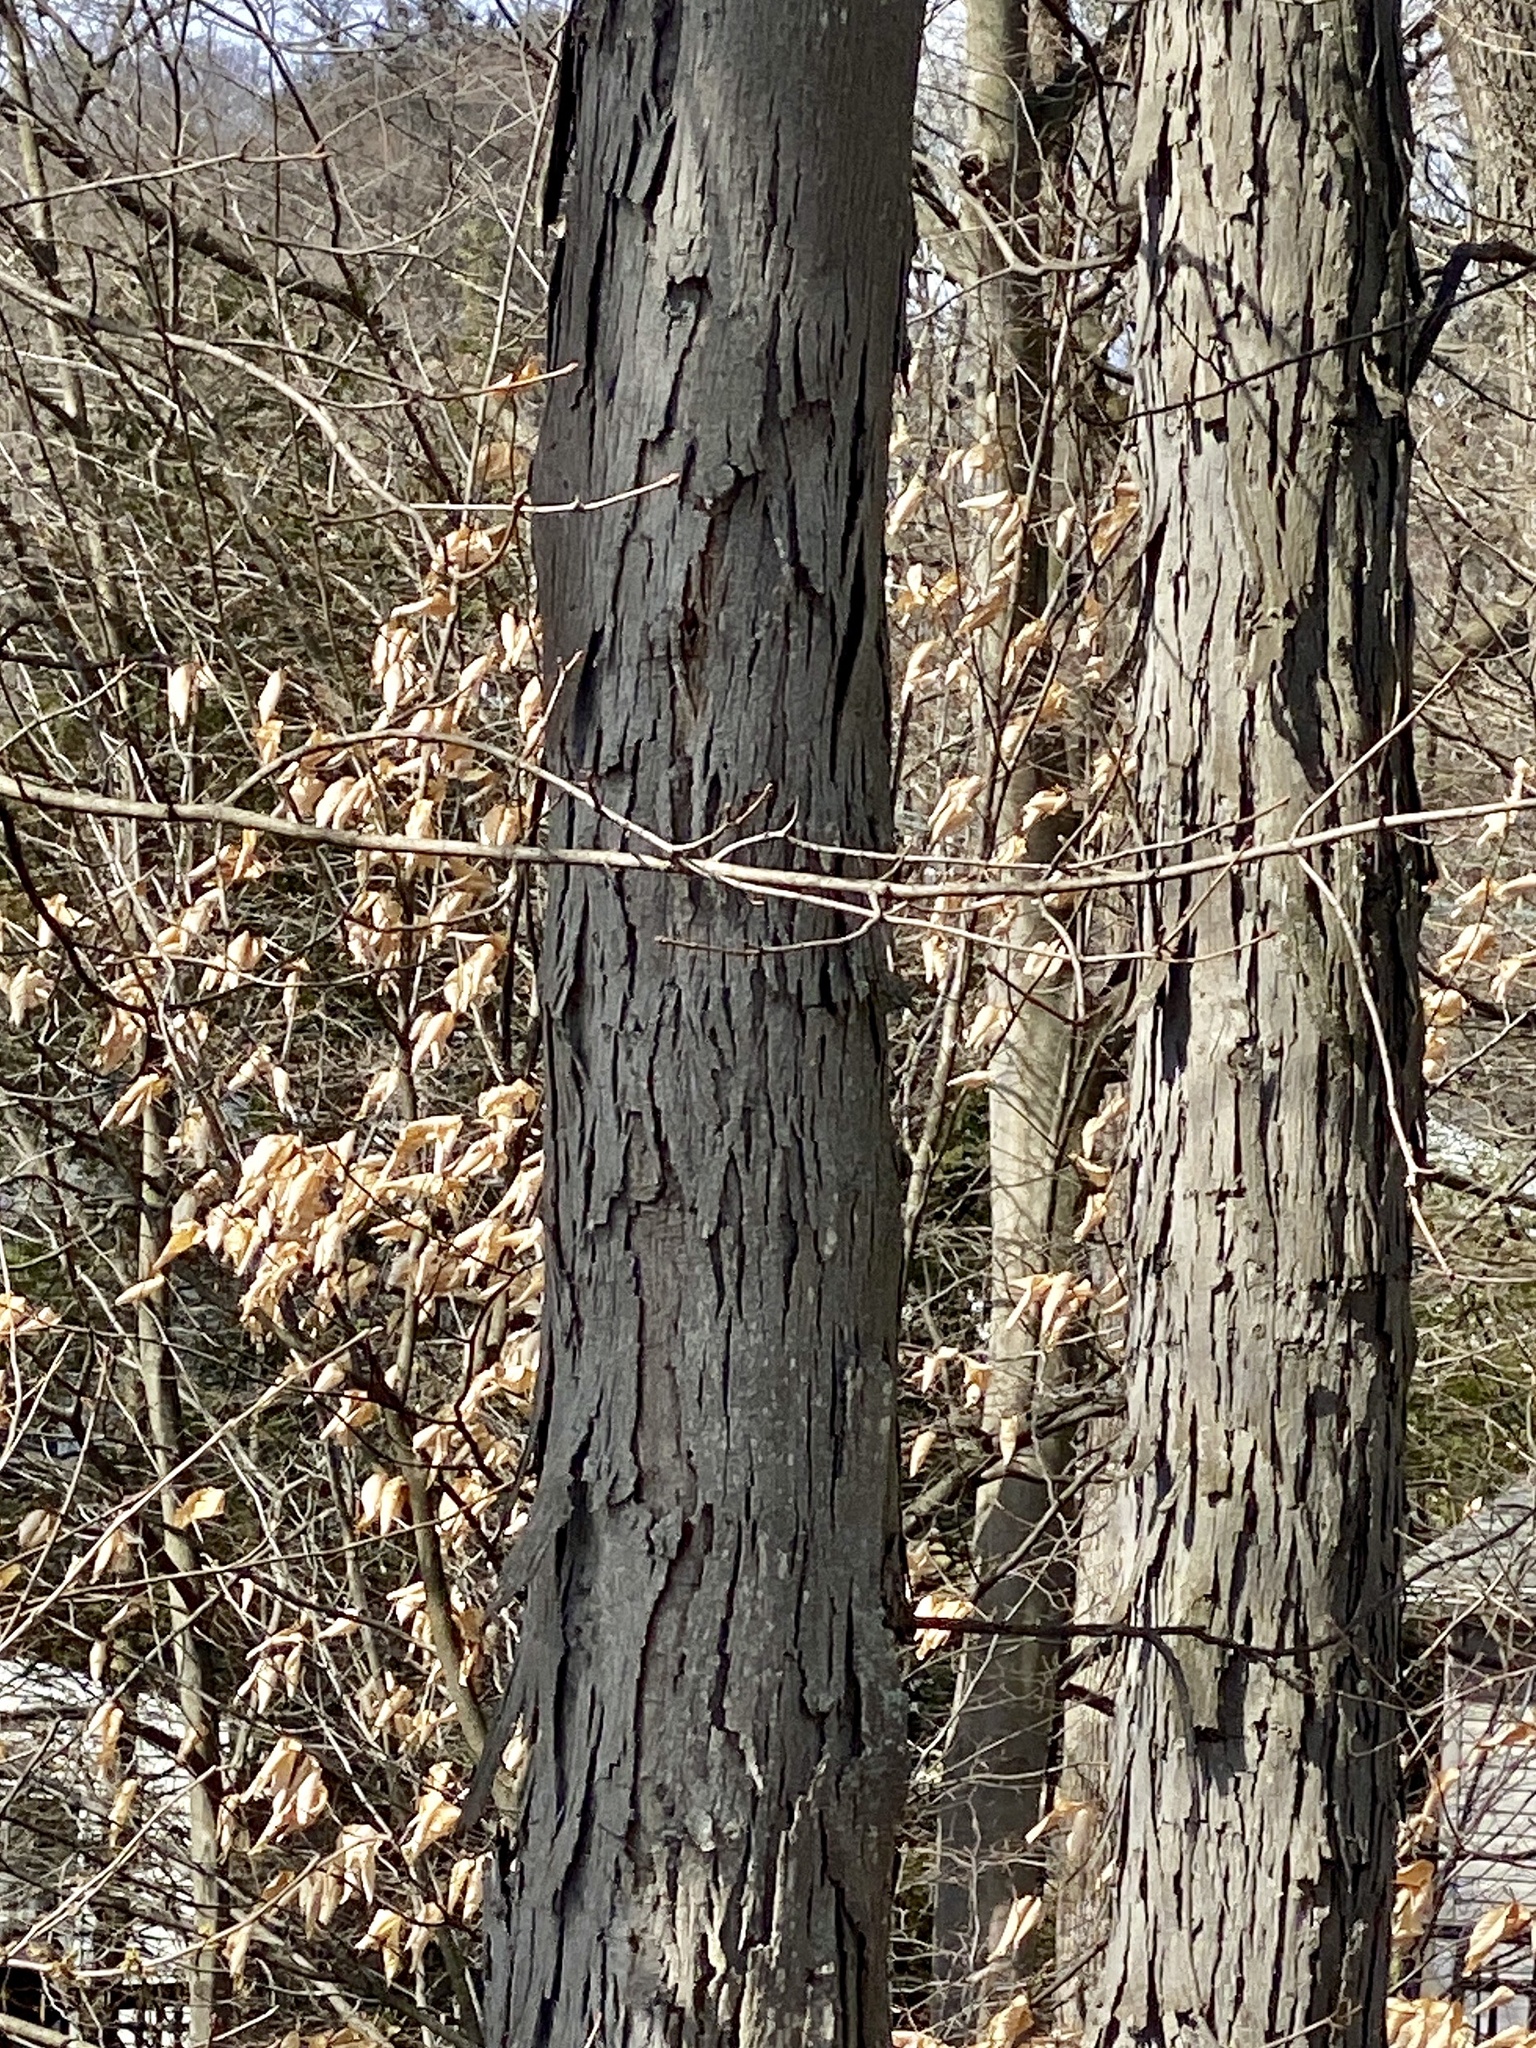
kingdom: Plantae
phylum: Tracheophyta
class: Magnoliopsida
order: Fagales
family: Juglandaceae
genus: Carya
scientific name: Carya ovata
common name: Shagbark hickory
